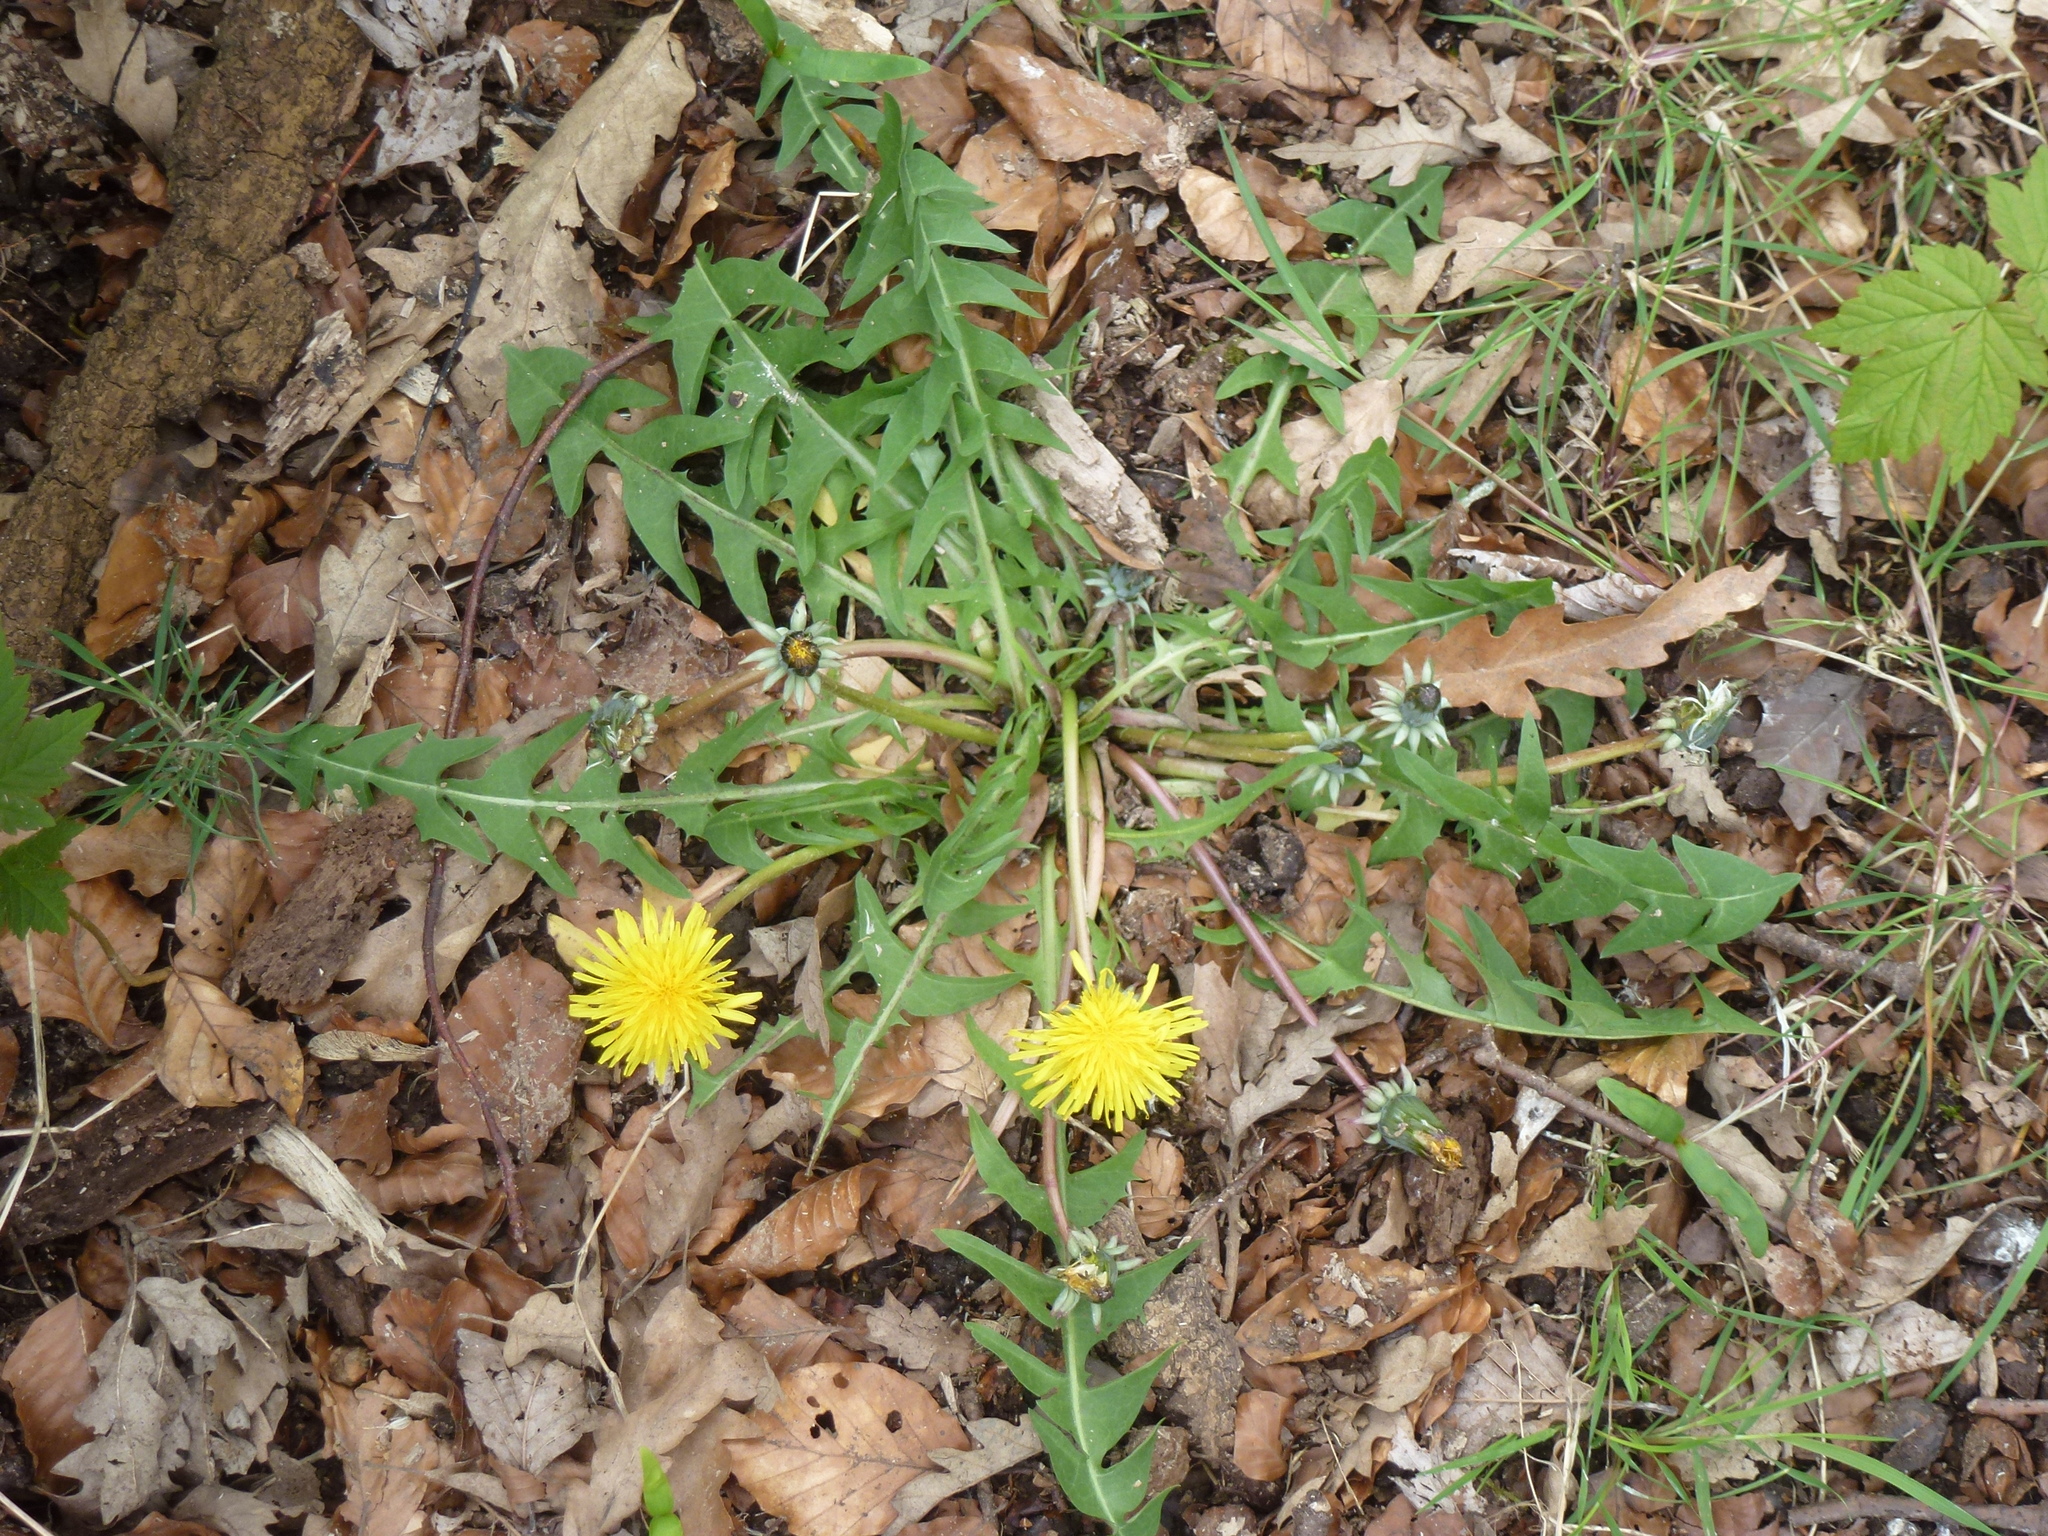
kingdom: Plantae
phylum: Tracheophyta
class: Magnoliopsida
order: Asterales
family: Asteraceae
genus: Taraxacum
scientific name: Taraxacum officinale
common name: Common dandelion
